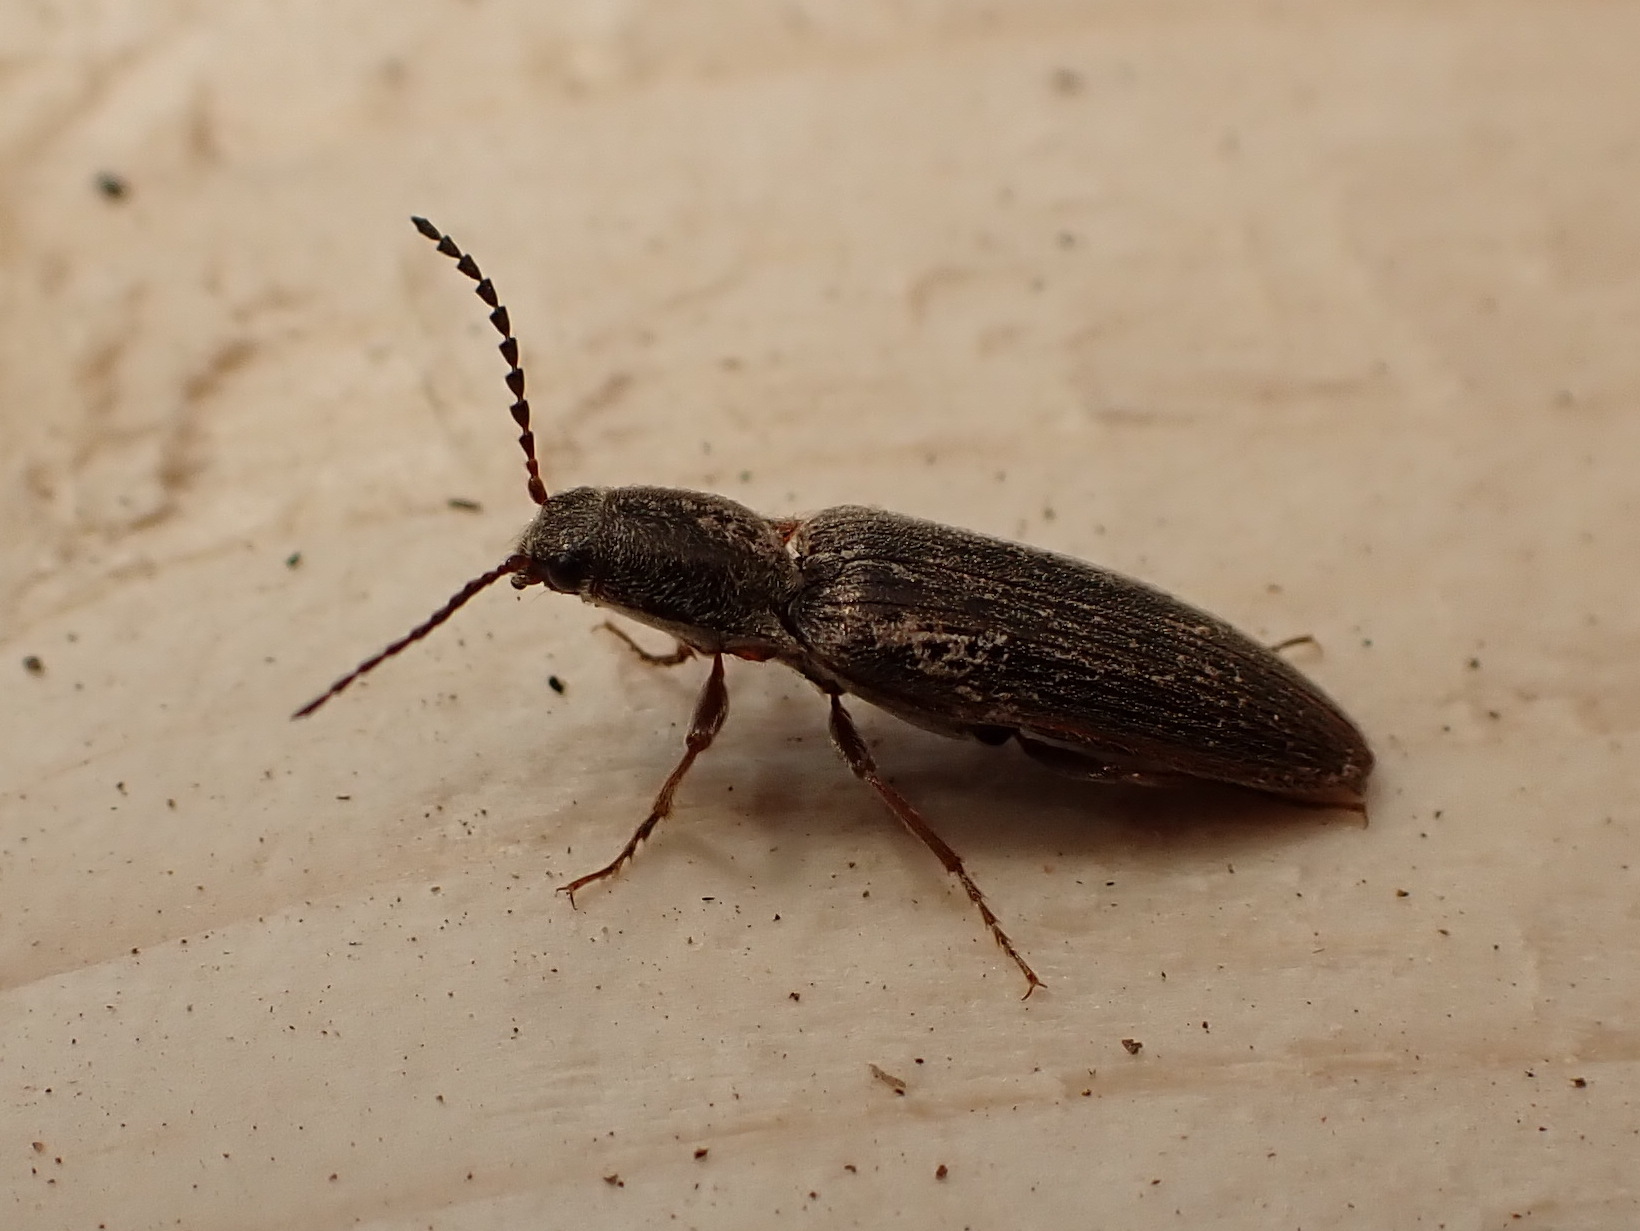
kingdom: Animalia
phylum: Arthropoda
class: Insecta
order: Coleoptera
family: Elateridae
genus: Sylvanelater
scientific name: Sylvanelater cylindriformis
